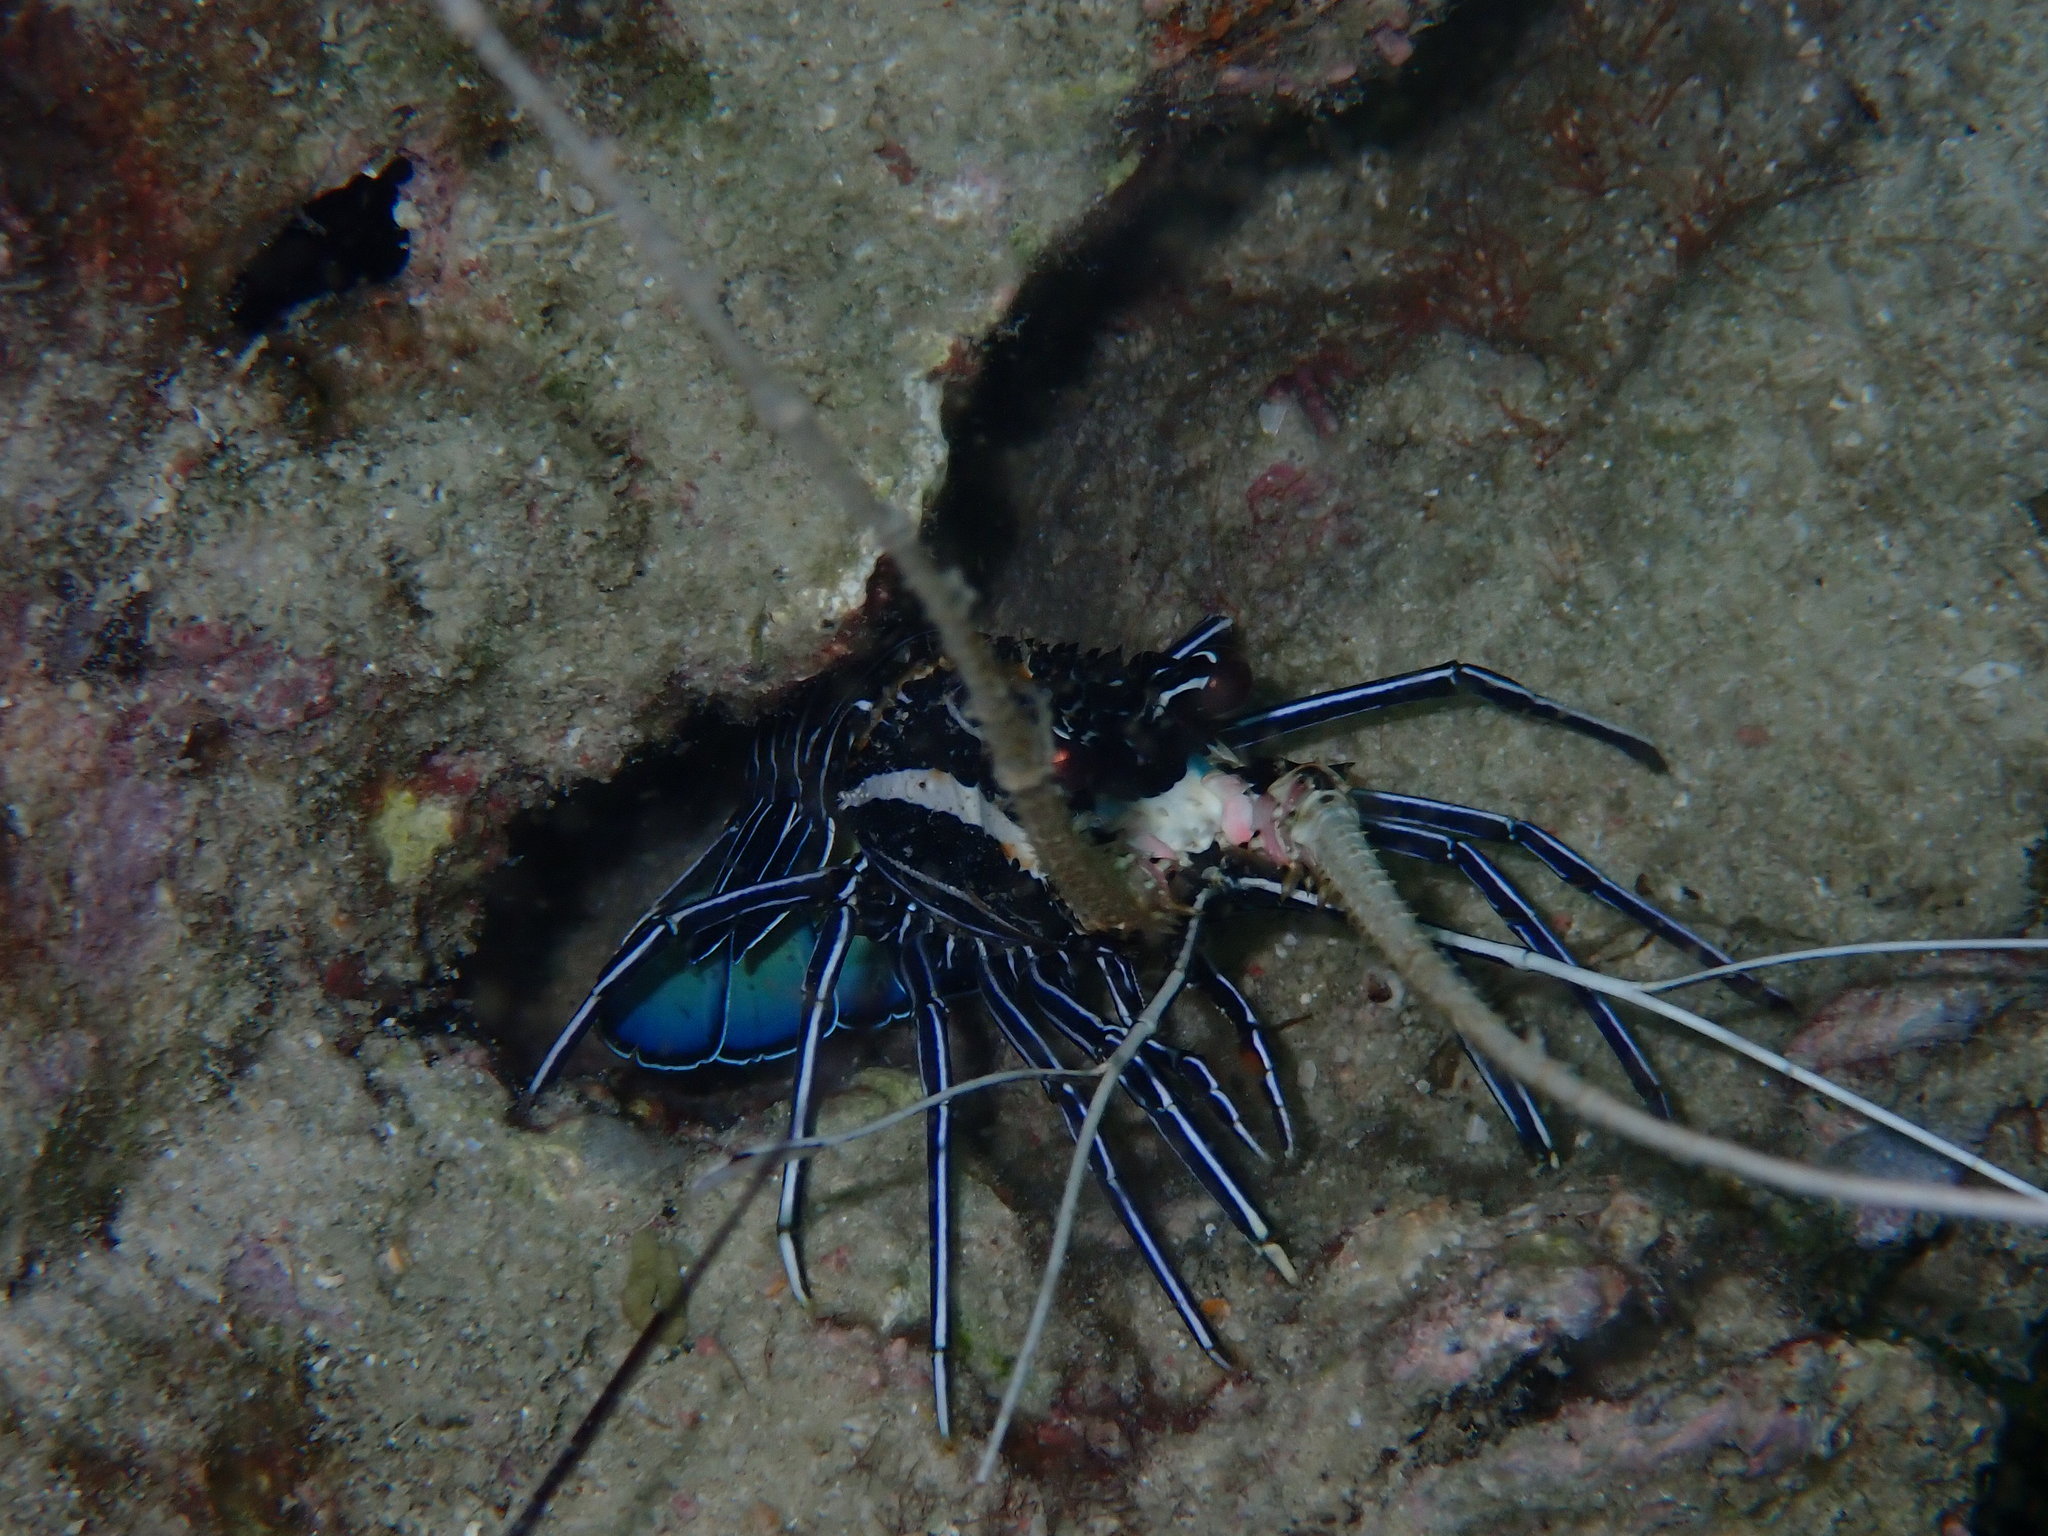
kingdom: Animalia
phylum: Arthropoda
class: Malacostraca
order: Decapoda
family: Palinuridae
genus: Panulirus
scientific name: Panulirus versicolor
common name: Painted spiny lobster
